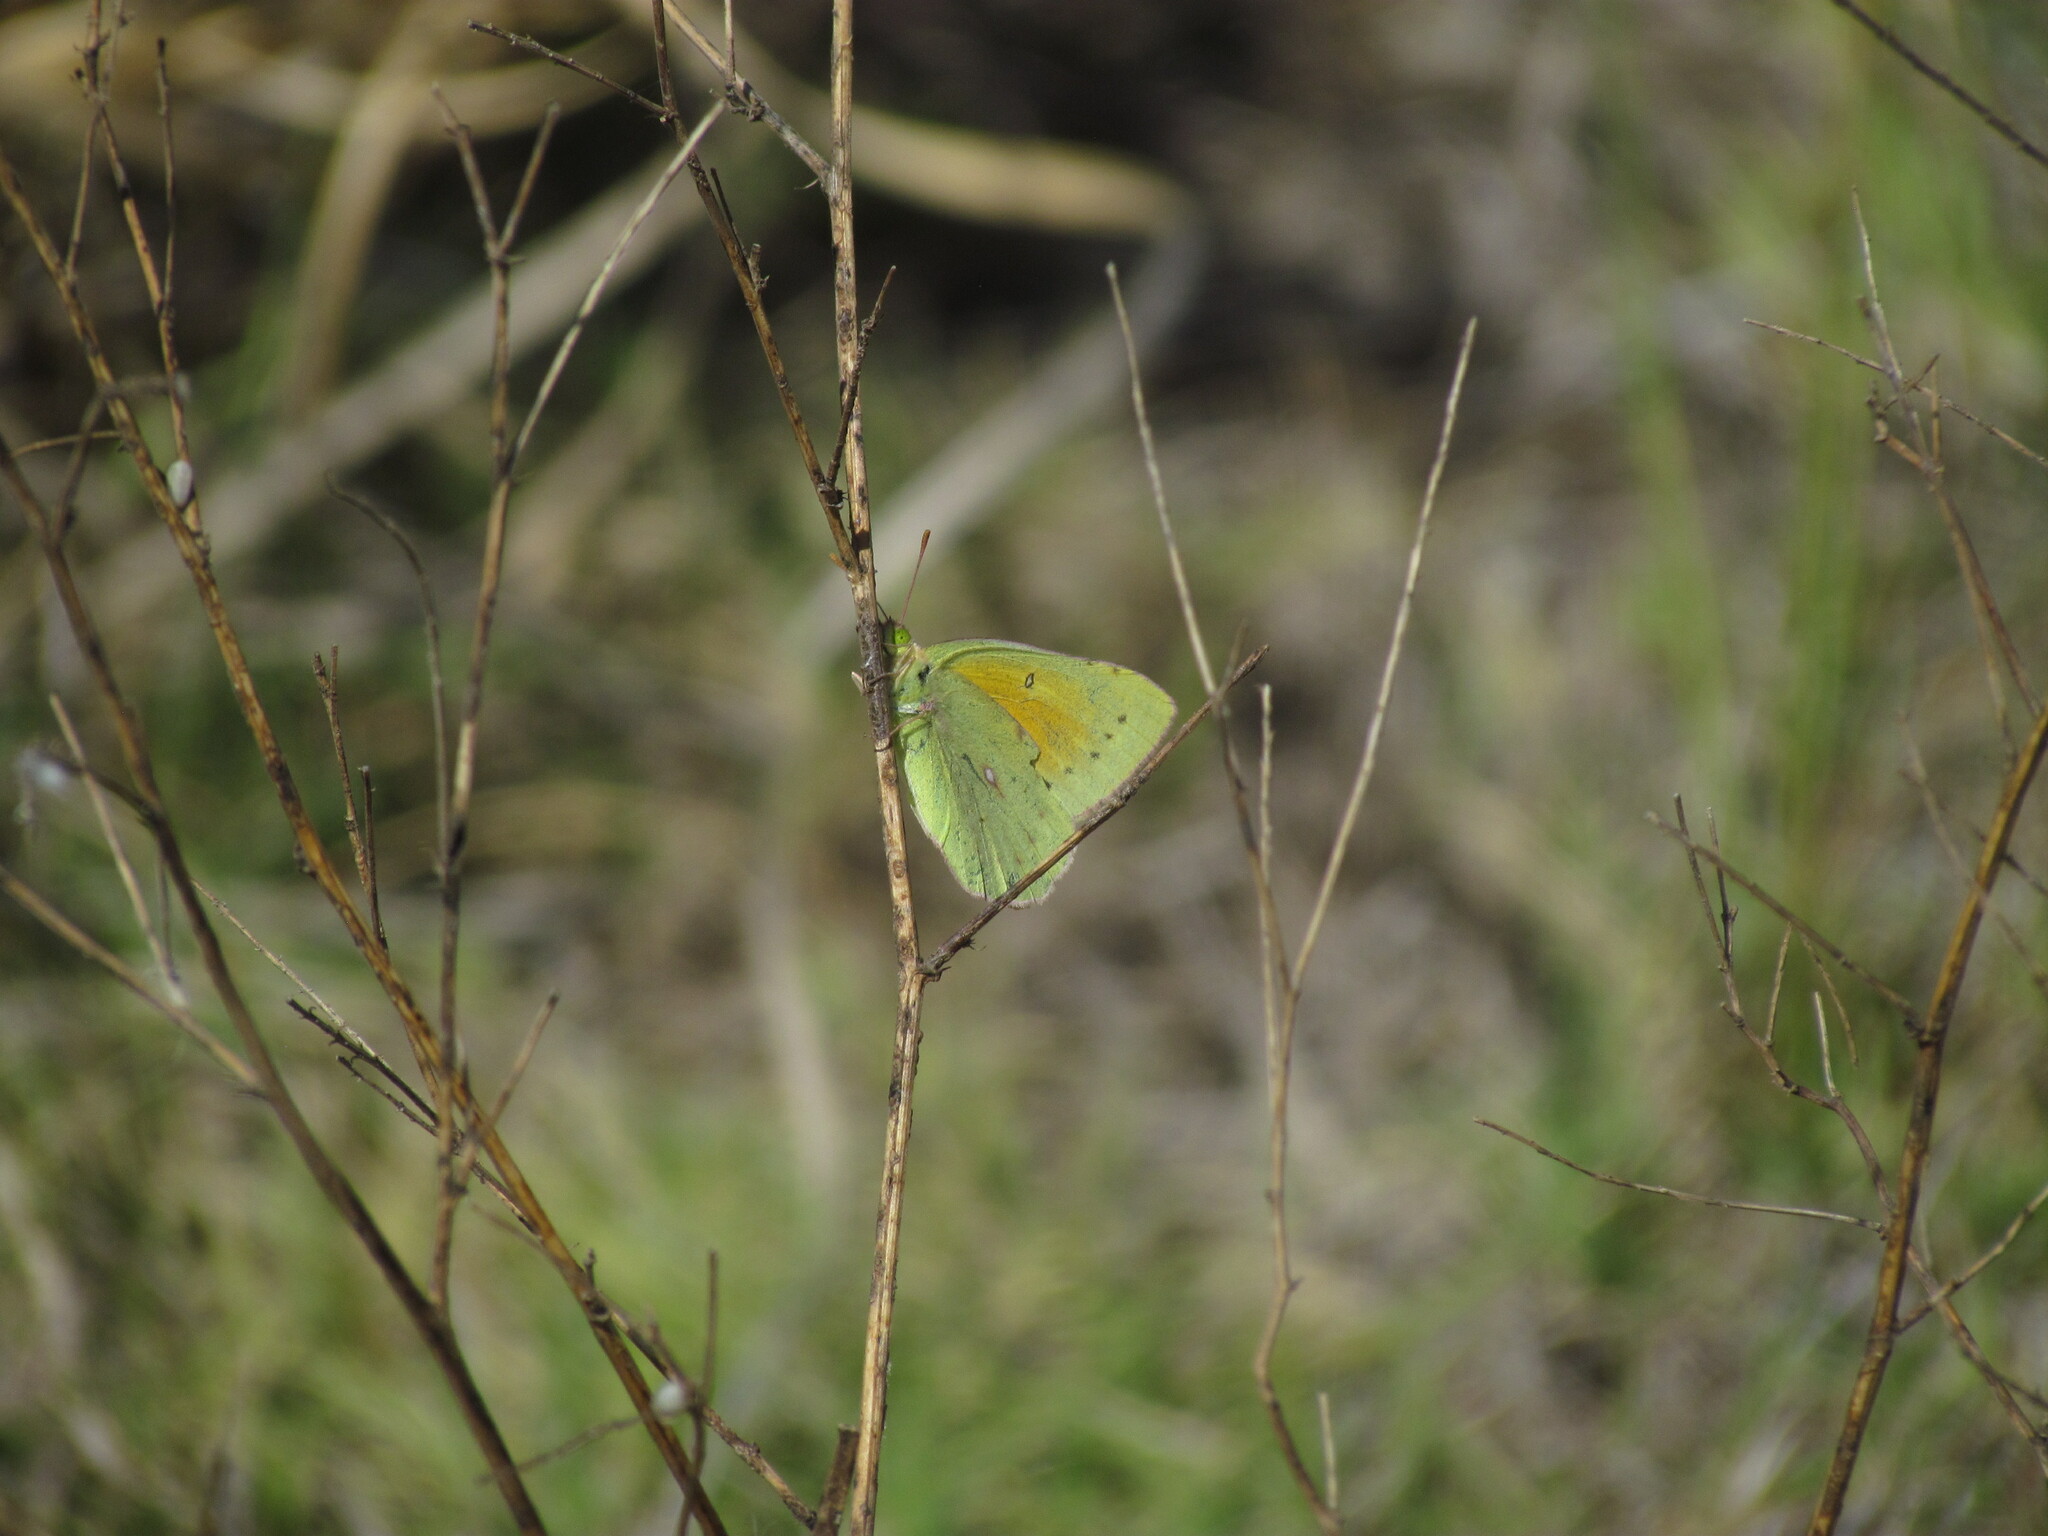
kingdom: Animalia
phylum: Arthropoda
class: Insecta
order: Lepidoptera
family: Pieridae
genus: Colias
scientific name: Colias lesbia
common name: Lesbia clouded yellow
